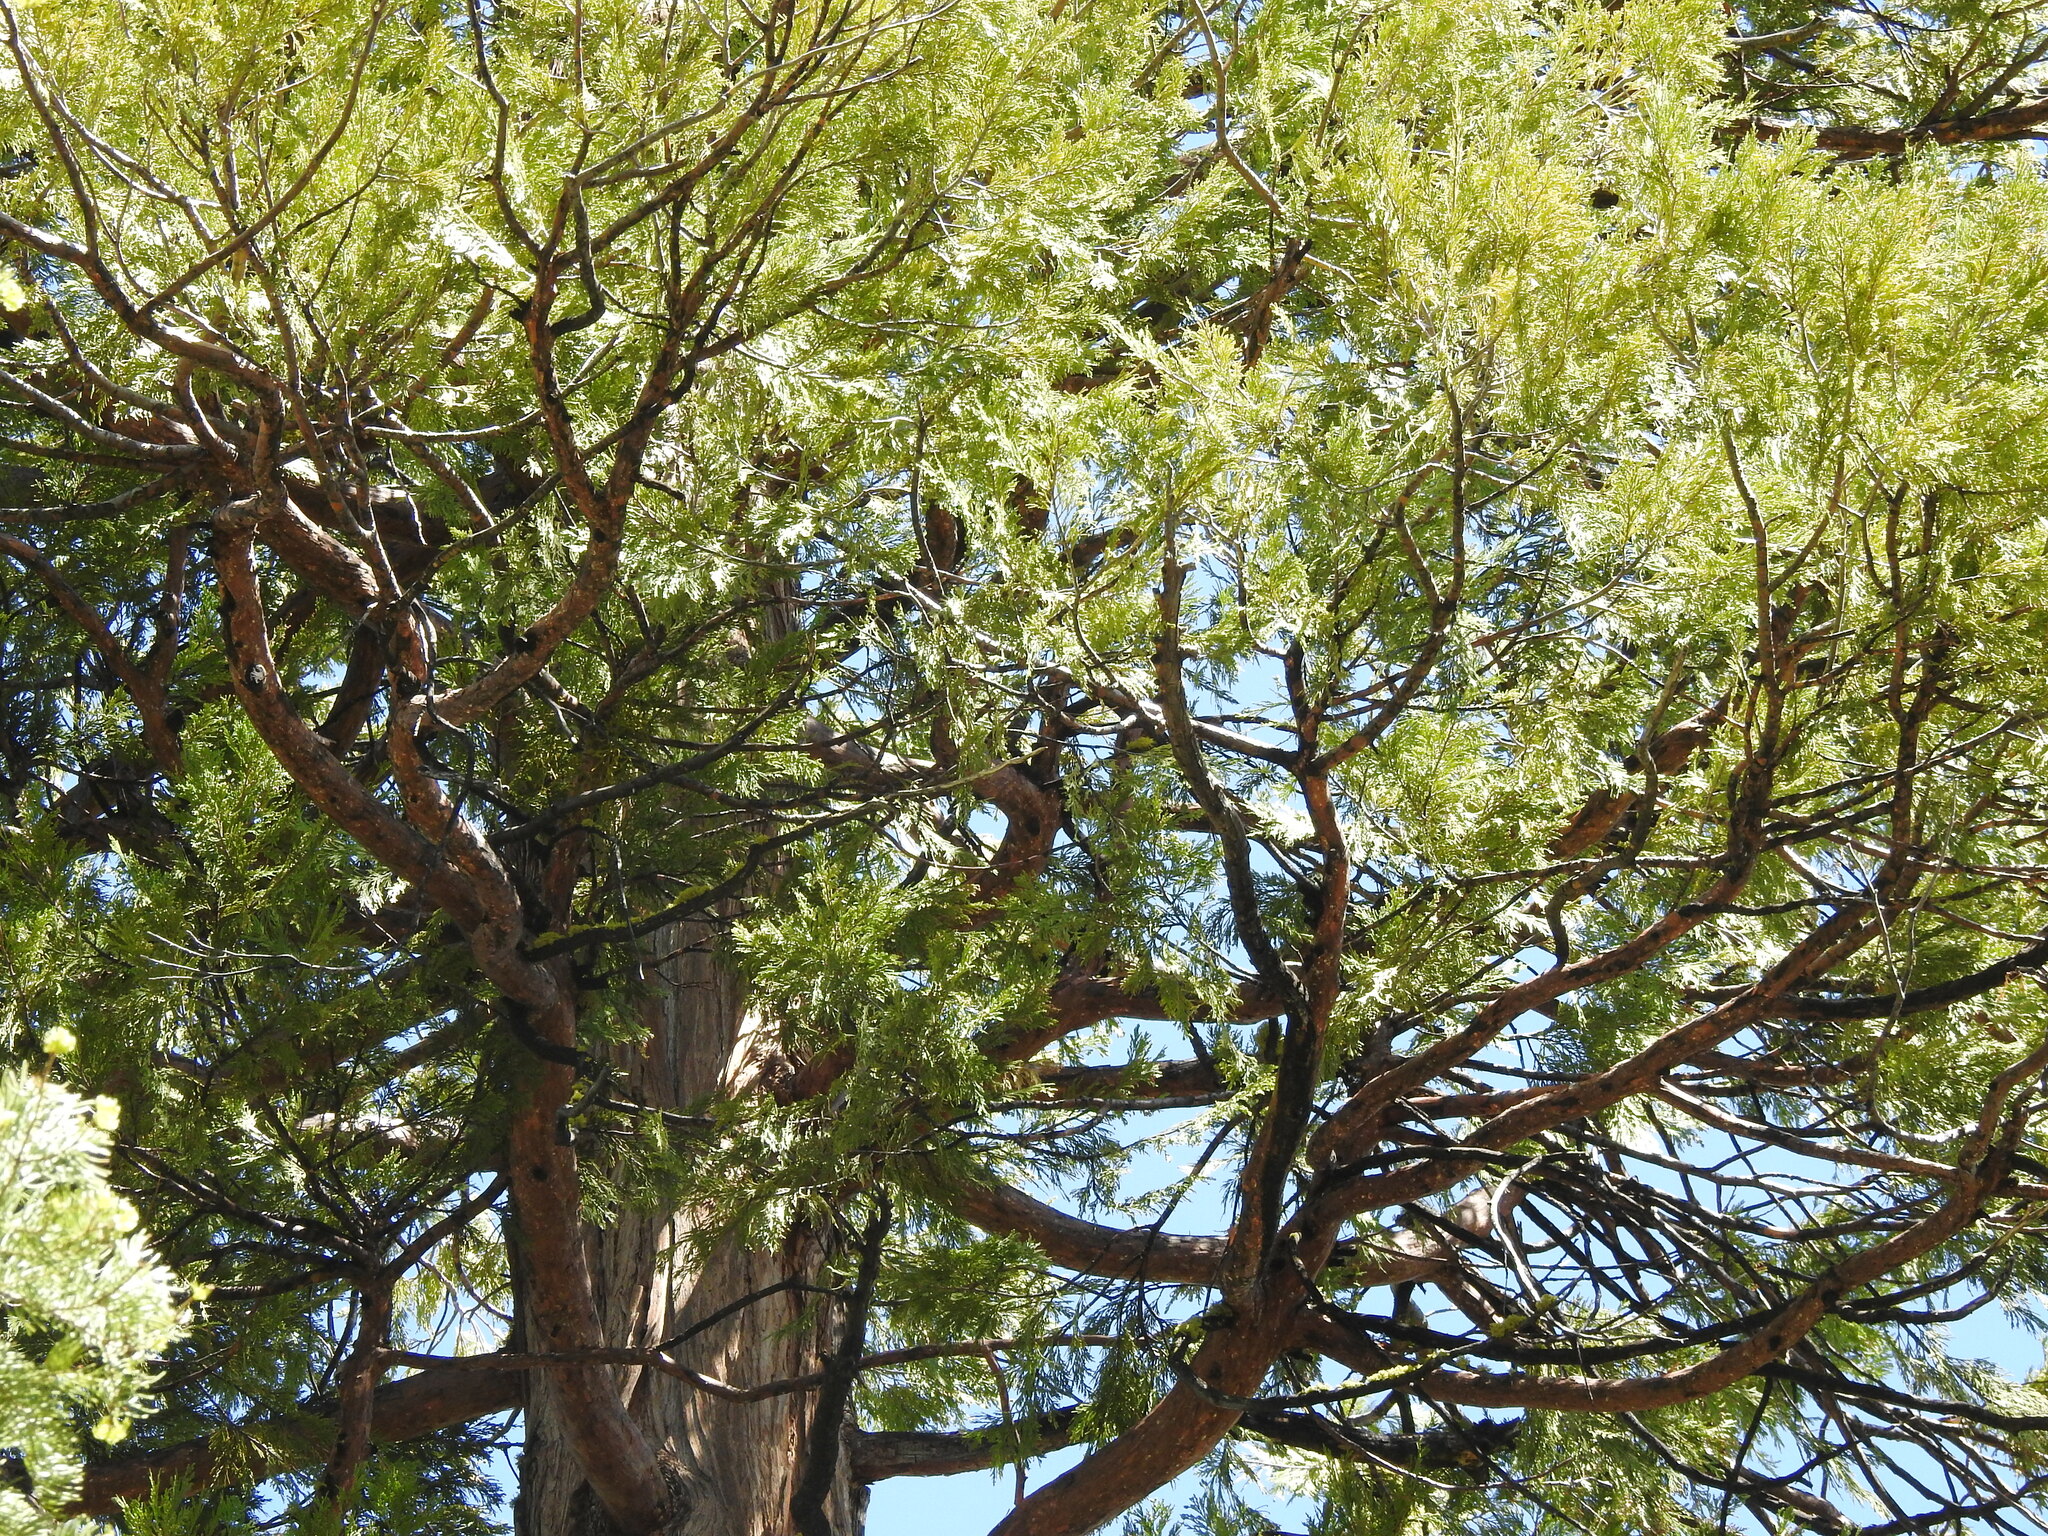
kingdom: Plantae
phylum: Tracheophyta
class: Pinopsida
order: Pinales
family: Cupressaceae
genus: Calocedrus
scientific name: Calocedrus decurrens
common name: Californian incense-cedar
